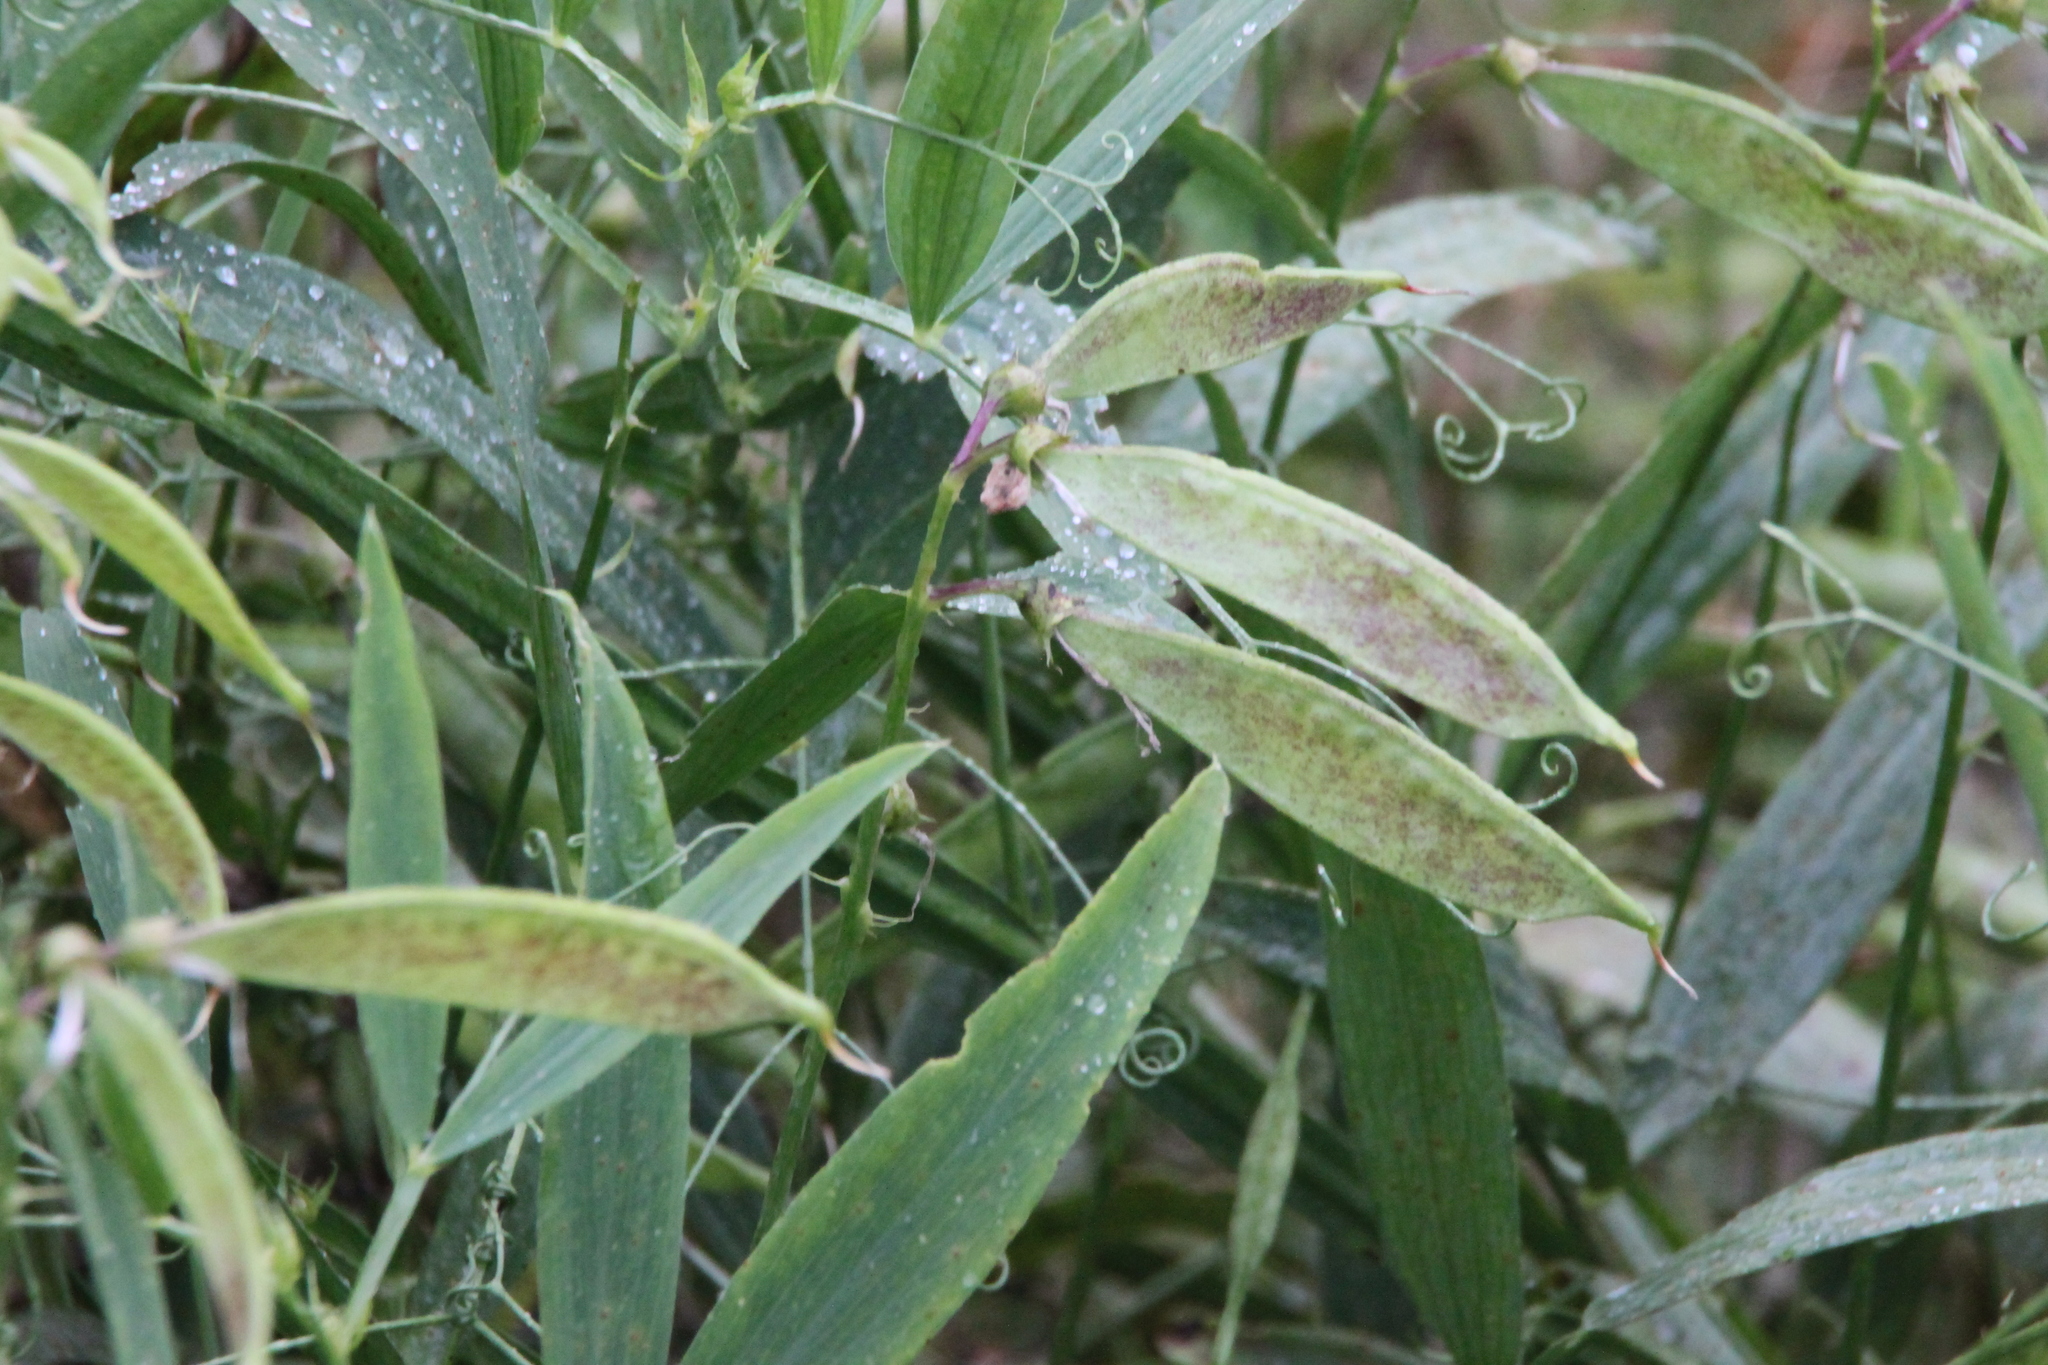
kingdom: Plantae
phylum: Tracheophyta
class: Magnoliopsida
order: Fabales
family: Fabaceae
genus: Lathyrus
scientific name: Lathyrus sylvestris
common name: Flat pea
